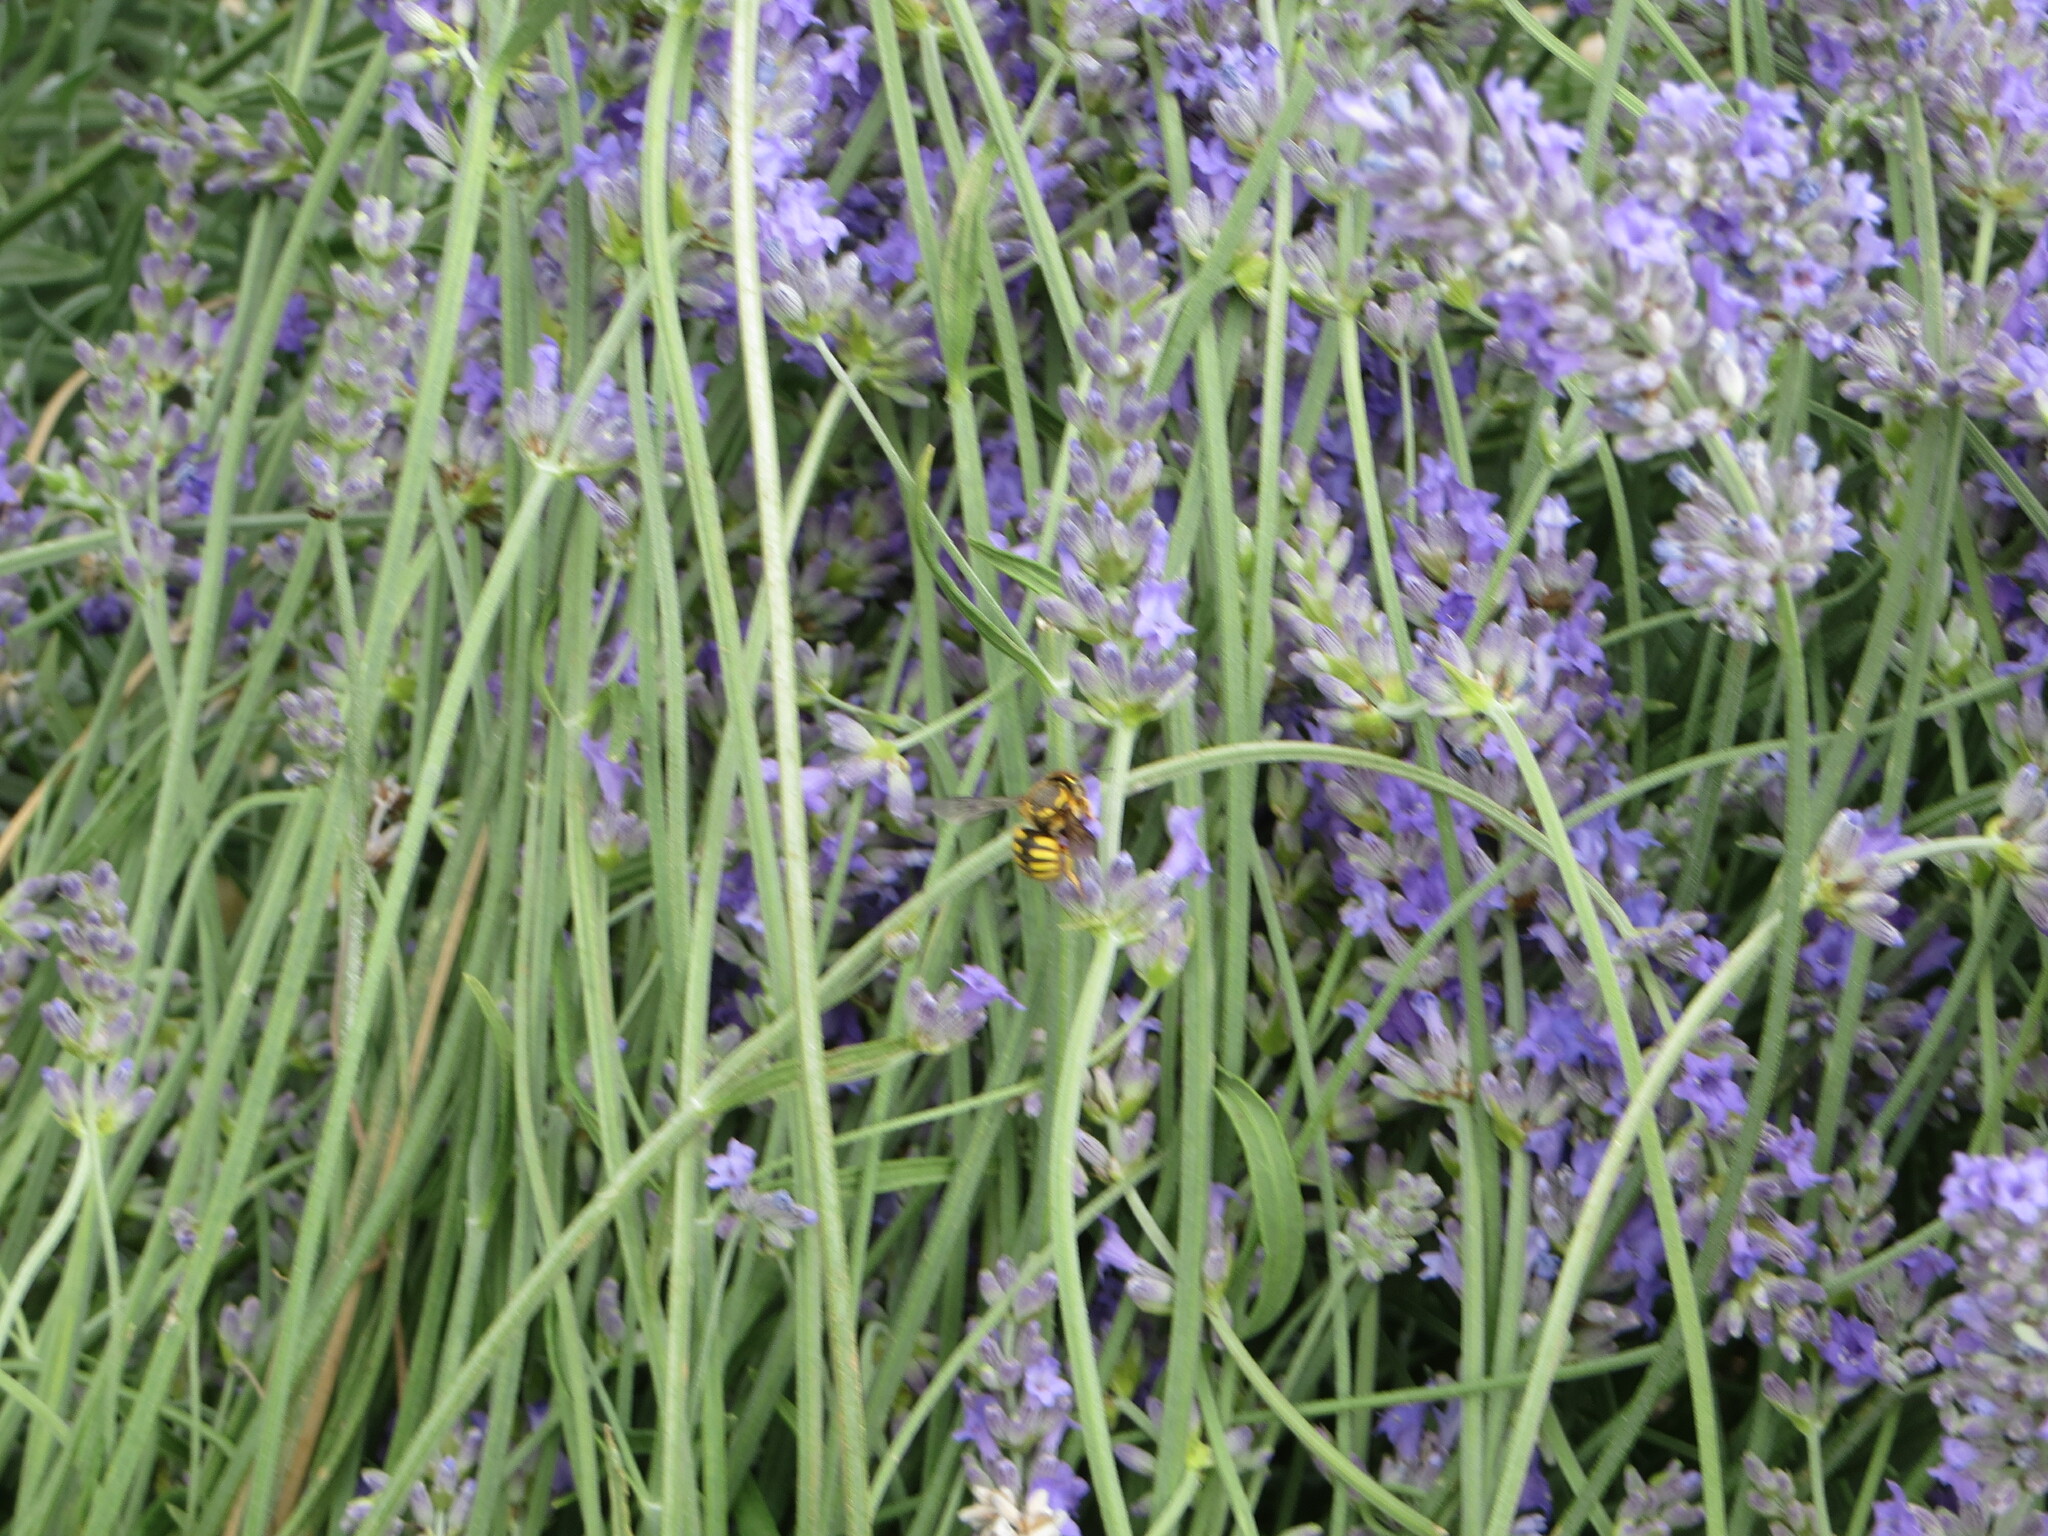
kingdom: Animalia
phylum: Arthropoda
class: Insecta
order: Hymenoptera
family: Megachilidae
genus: Anthidium
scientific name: Anthidium manicatum
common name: Wool carder bee
